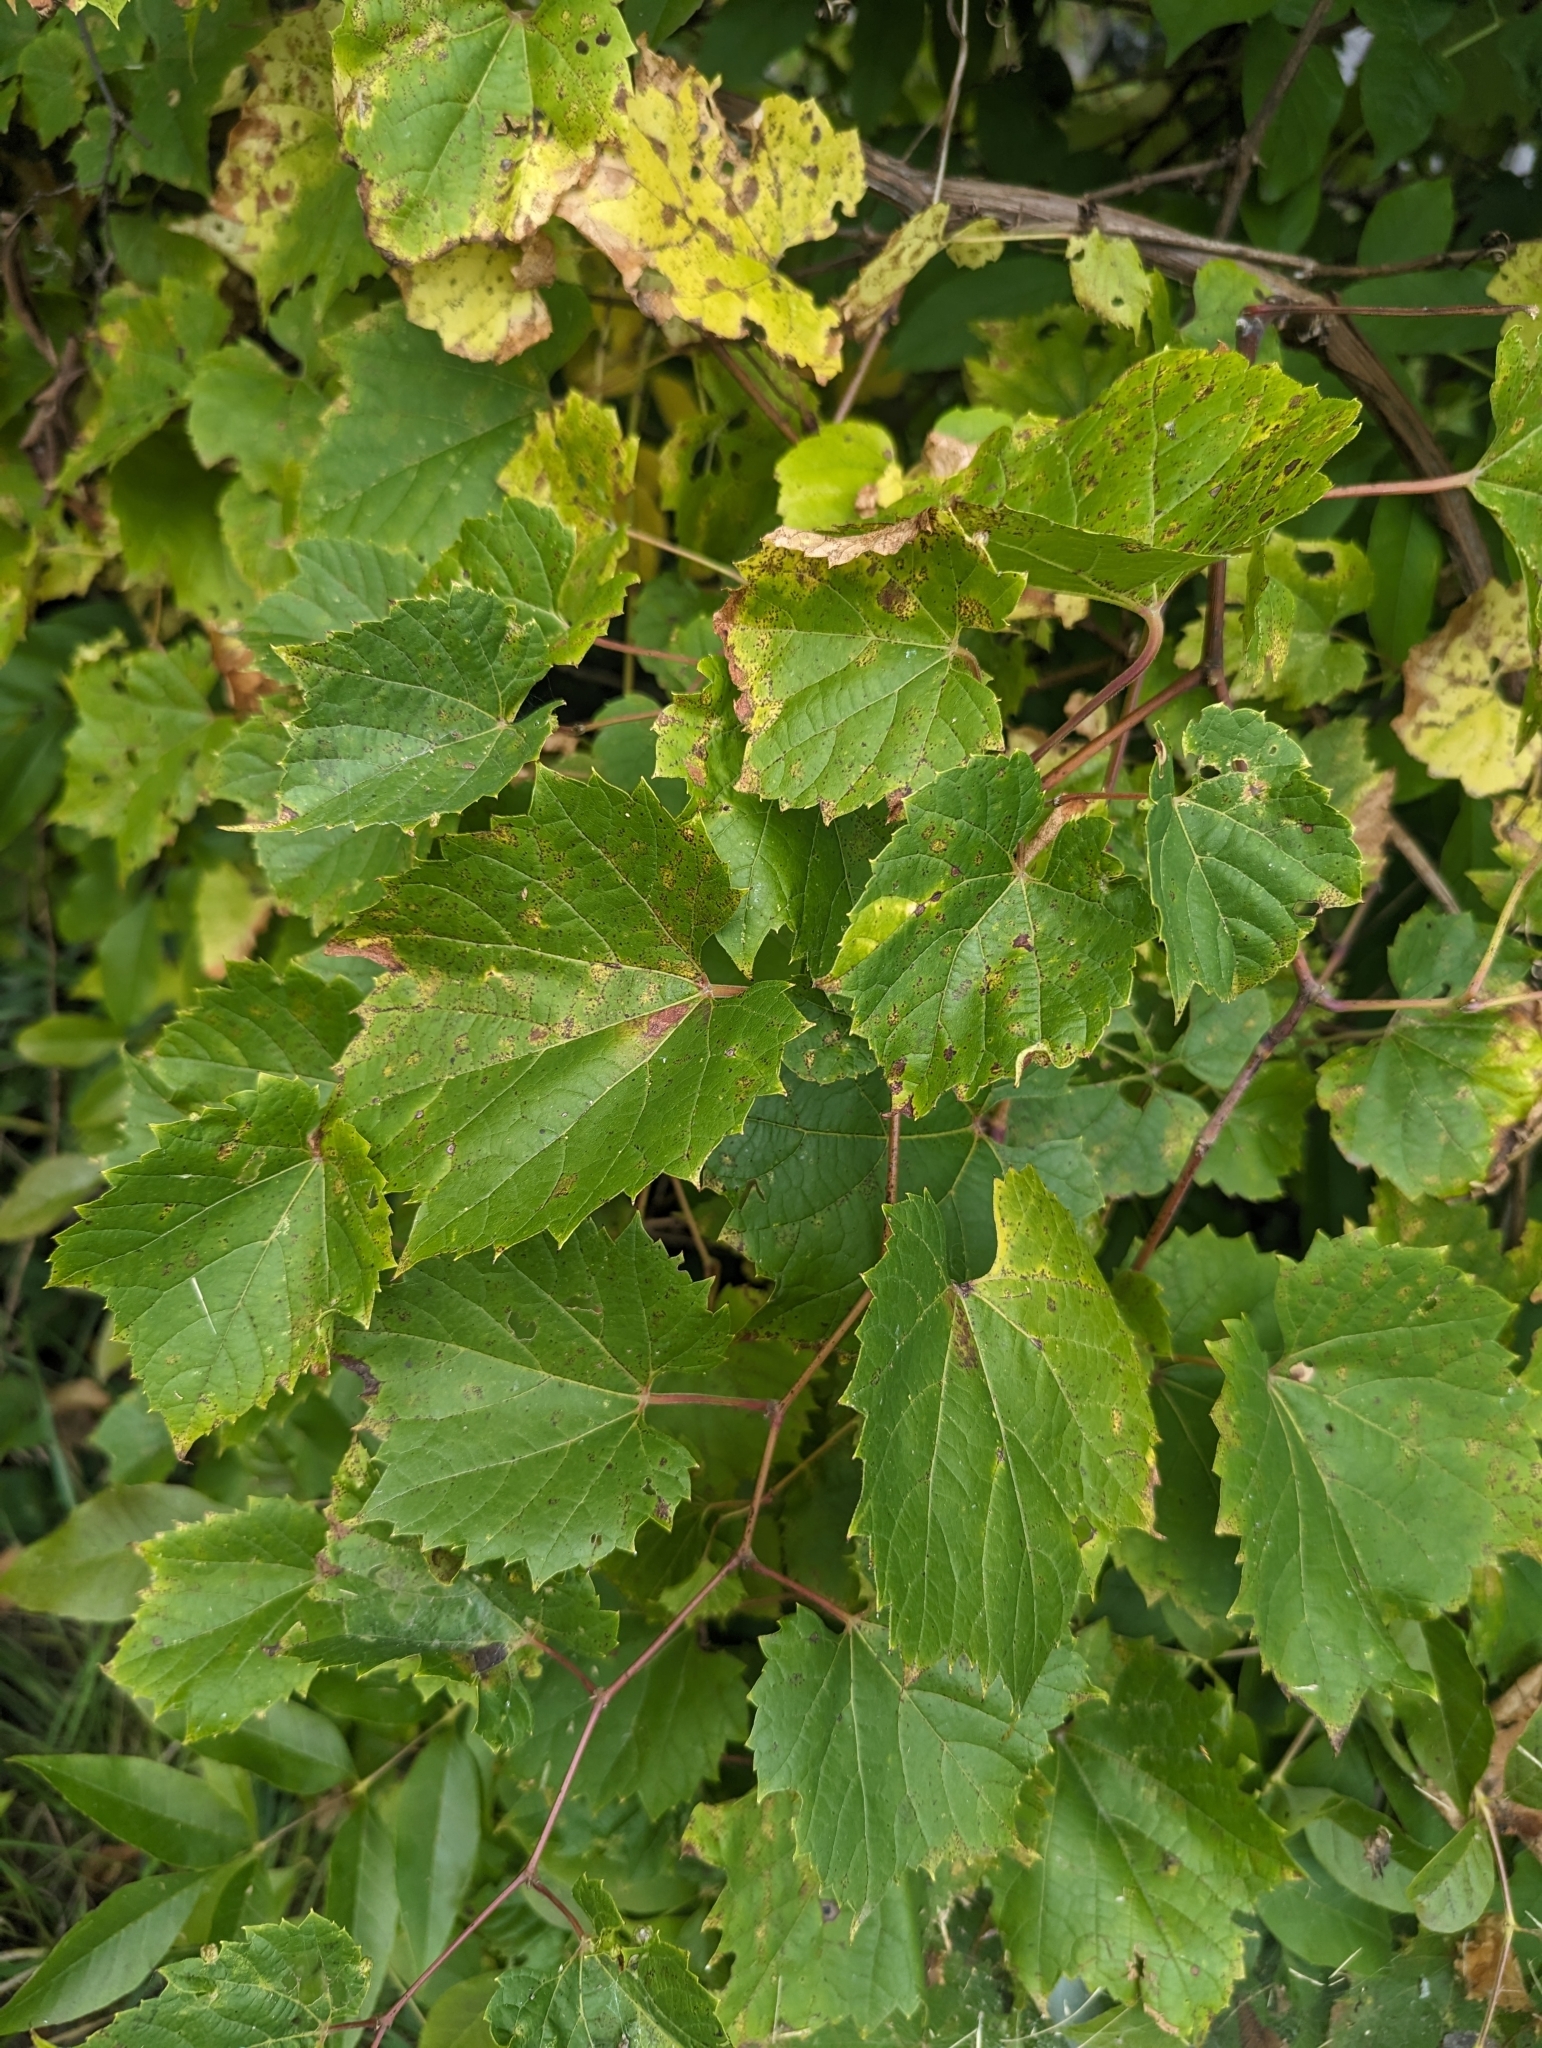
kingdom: Plantae
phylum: Tracheophyta
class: Magnoliopsida
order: Vitales
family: Vitaceae
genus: Vitis
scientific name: Vitis riparia
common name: Frost grape
